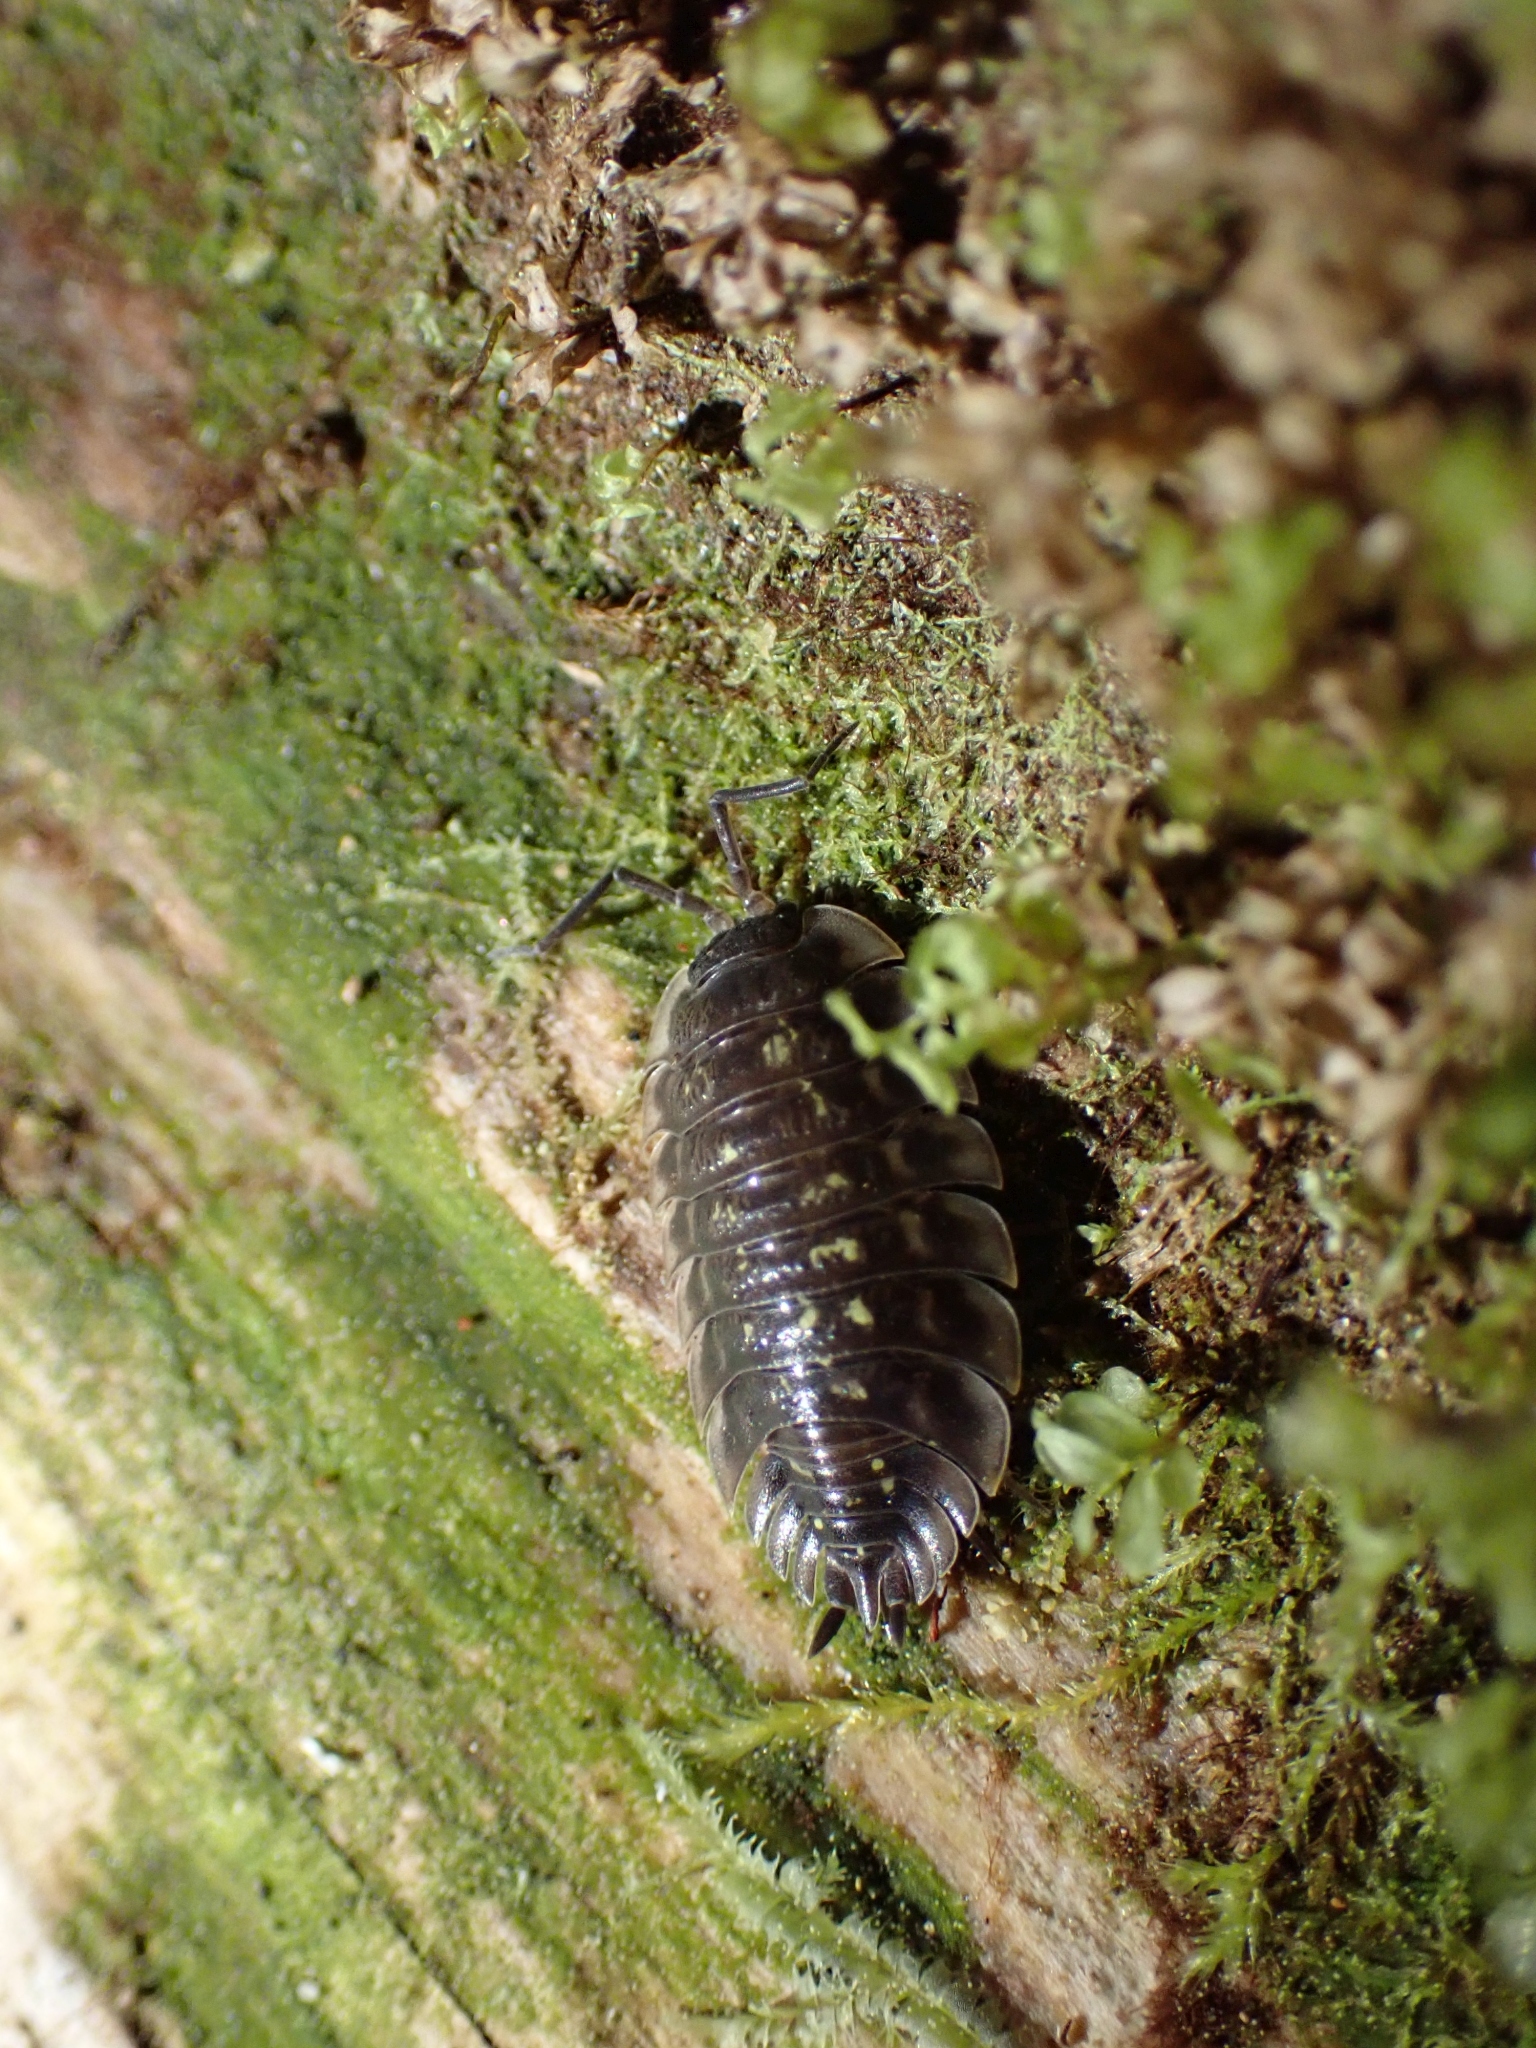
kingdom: Animalia
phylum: Arthropoda
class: Malacostraca
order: Isopoda
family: Oniscidae
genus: Oniscus
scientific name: Oniscus asellus
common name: Common shiny woodlouse
